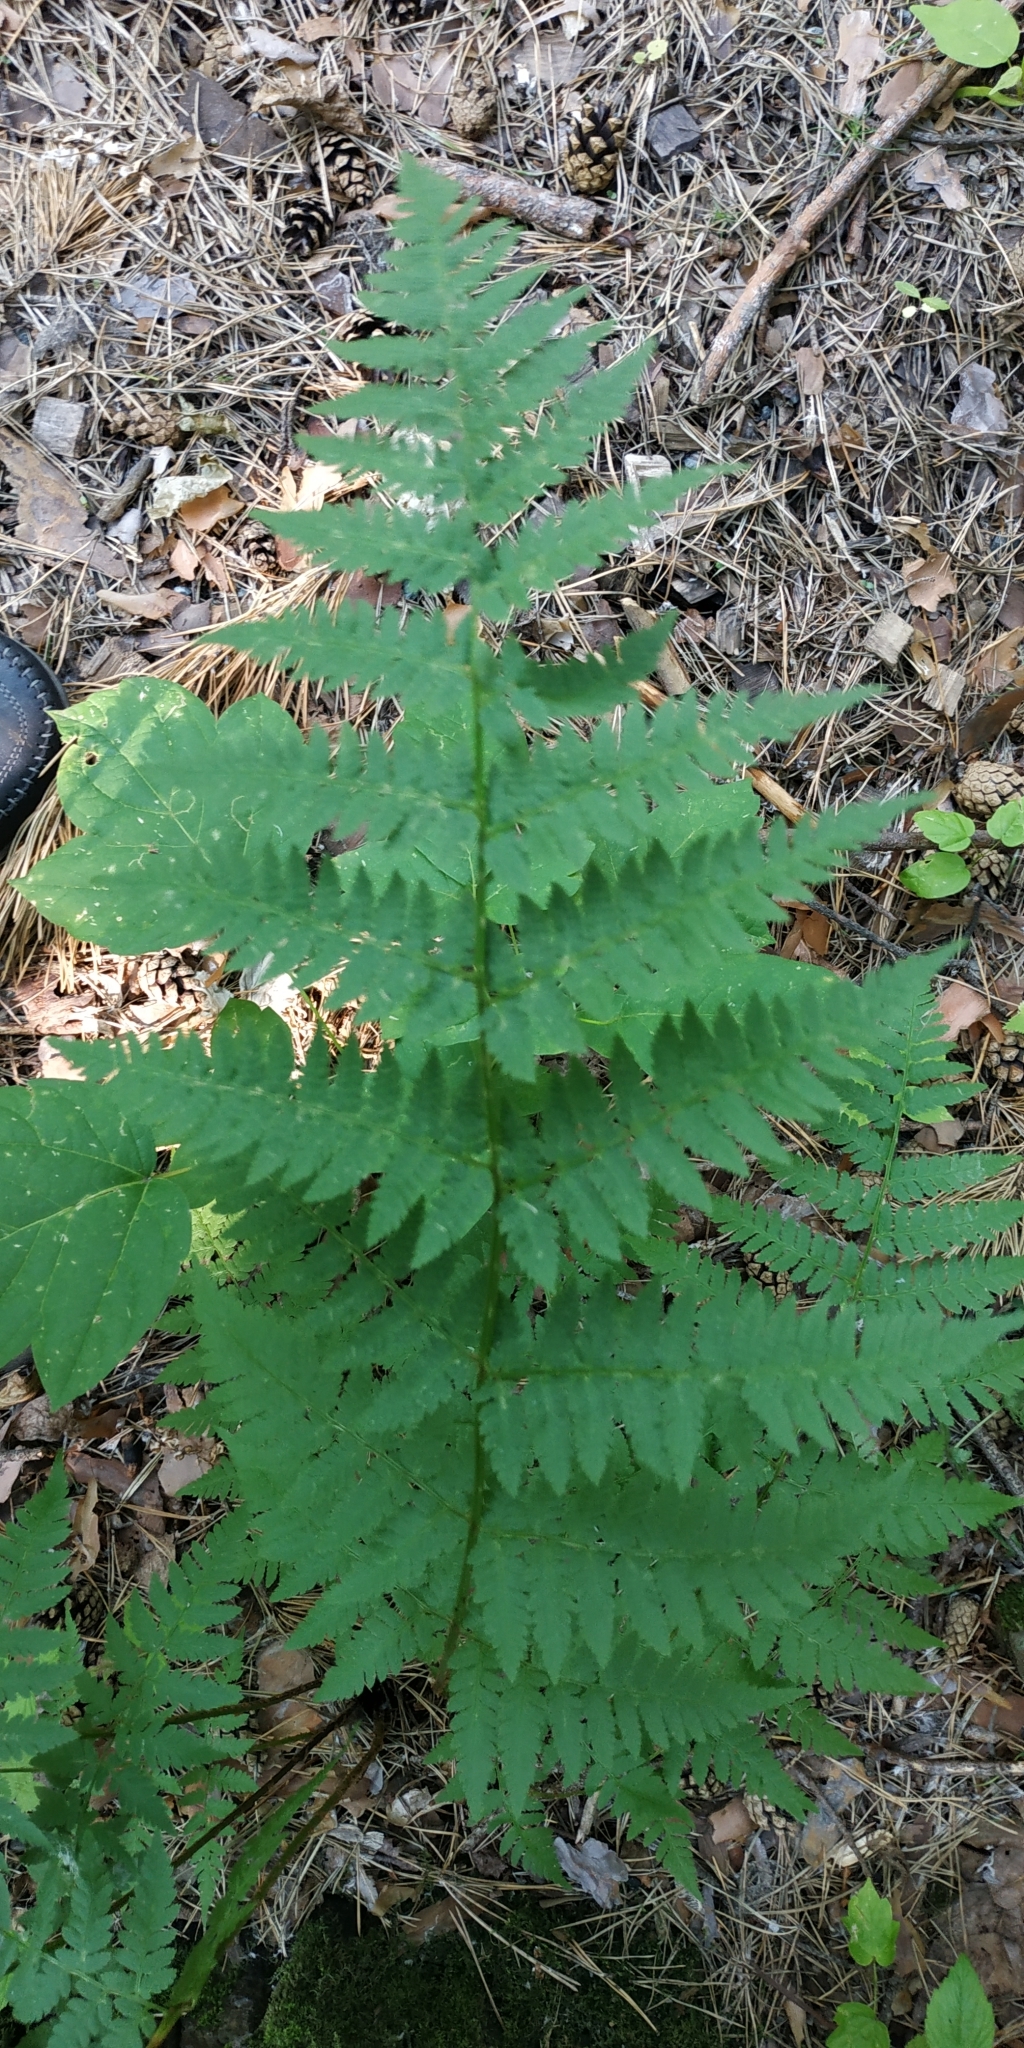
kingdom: Plantae
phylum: Tracheophyta
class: Polypodiopsida
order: Polypodiales
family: Dryopteridaceae
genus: Dryopteris
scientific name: Dryopteris carthusiana
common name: Narrow buckler-fern
